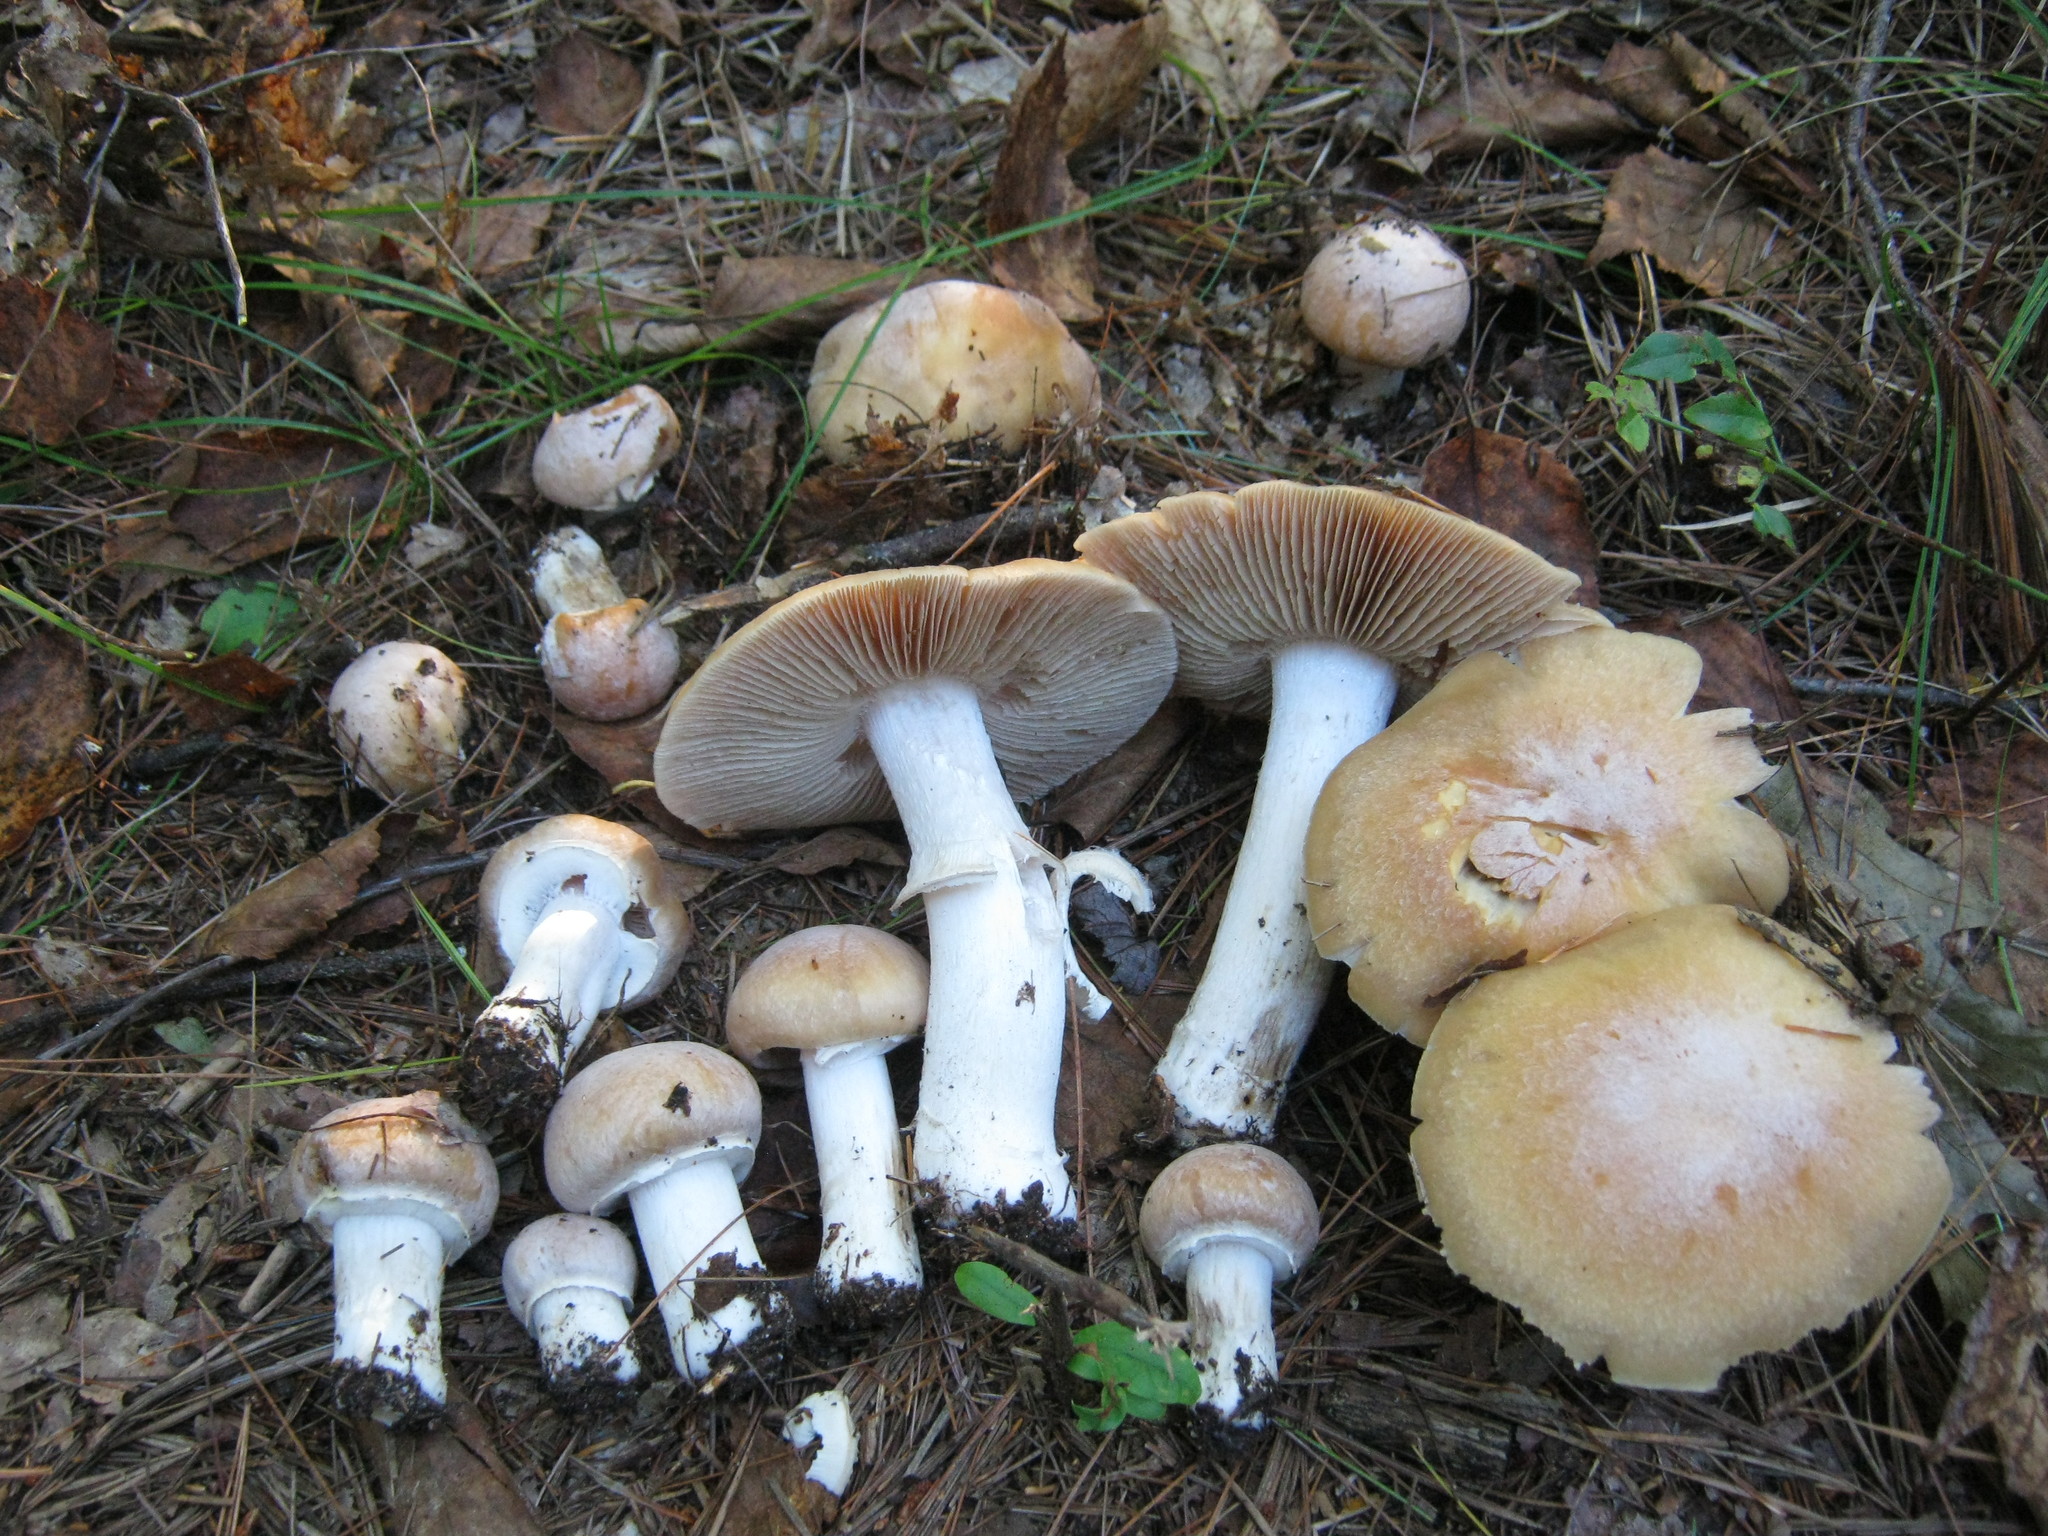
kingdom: Fungi
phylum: Basidiomycota
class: Agaricomycetes
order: Agaricales
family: Cortinariaceae
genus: Cortinarius
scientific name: Cortinarius caperatus
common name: The gypsy
